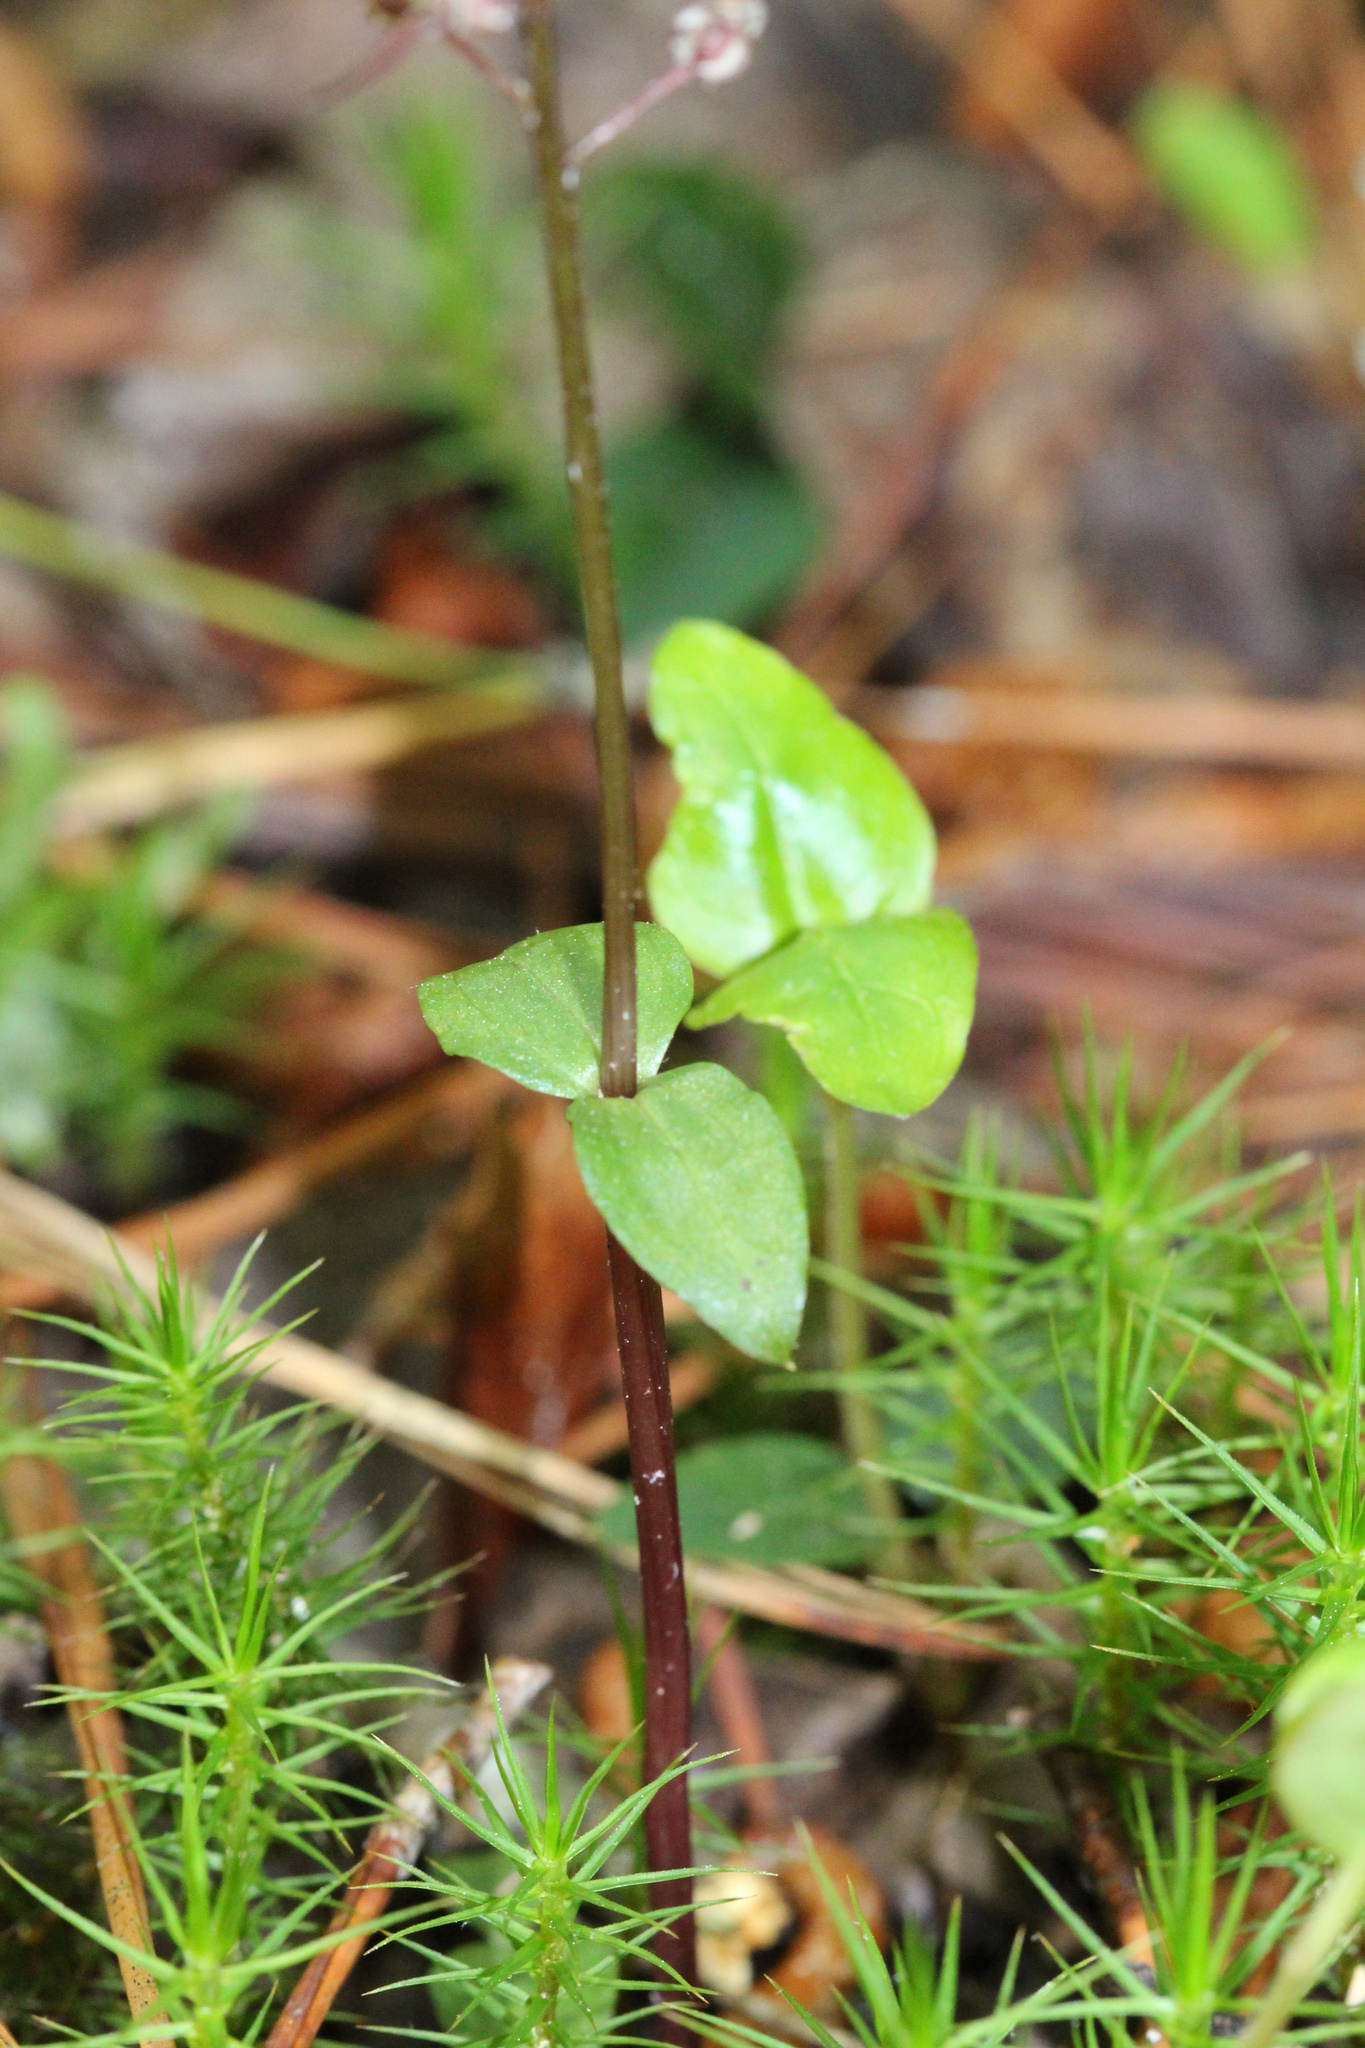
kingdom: Plantae
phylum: Tracheophyta
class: Liliopsida
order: Asparagales
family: Orchidaceae
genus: Neottia
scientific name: Neottia bifolia
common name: Southern twayblade
